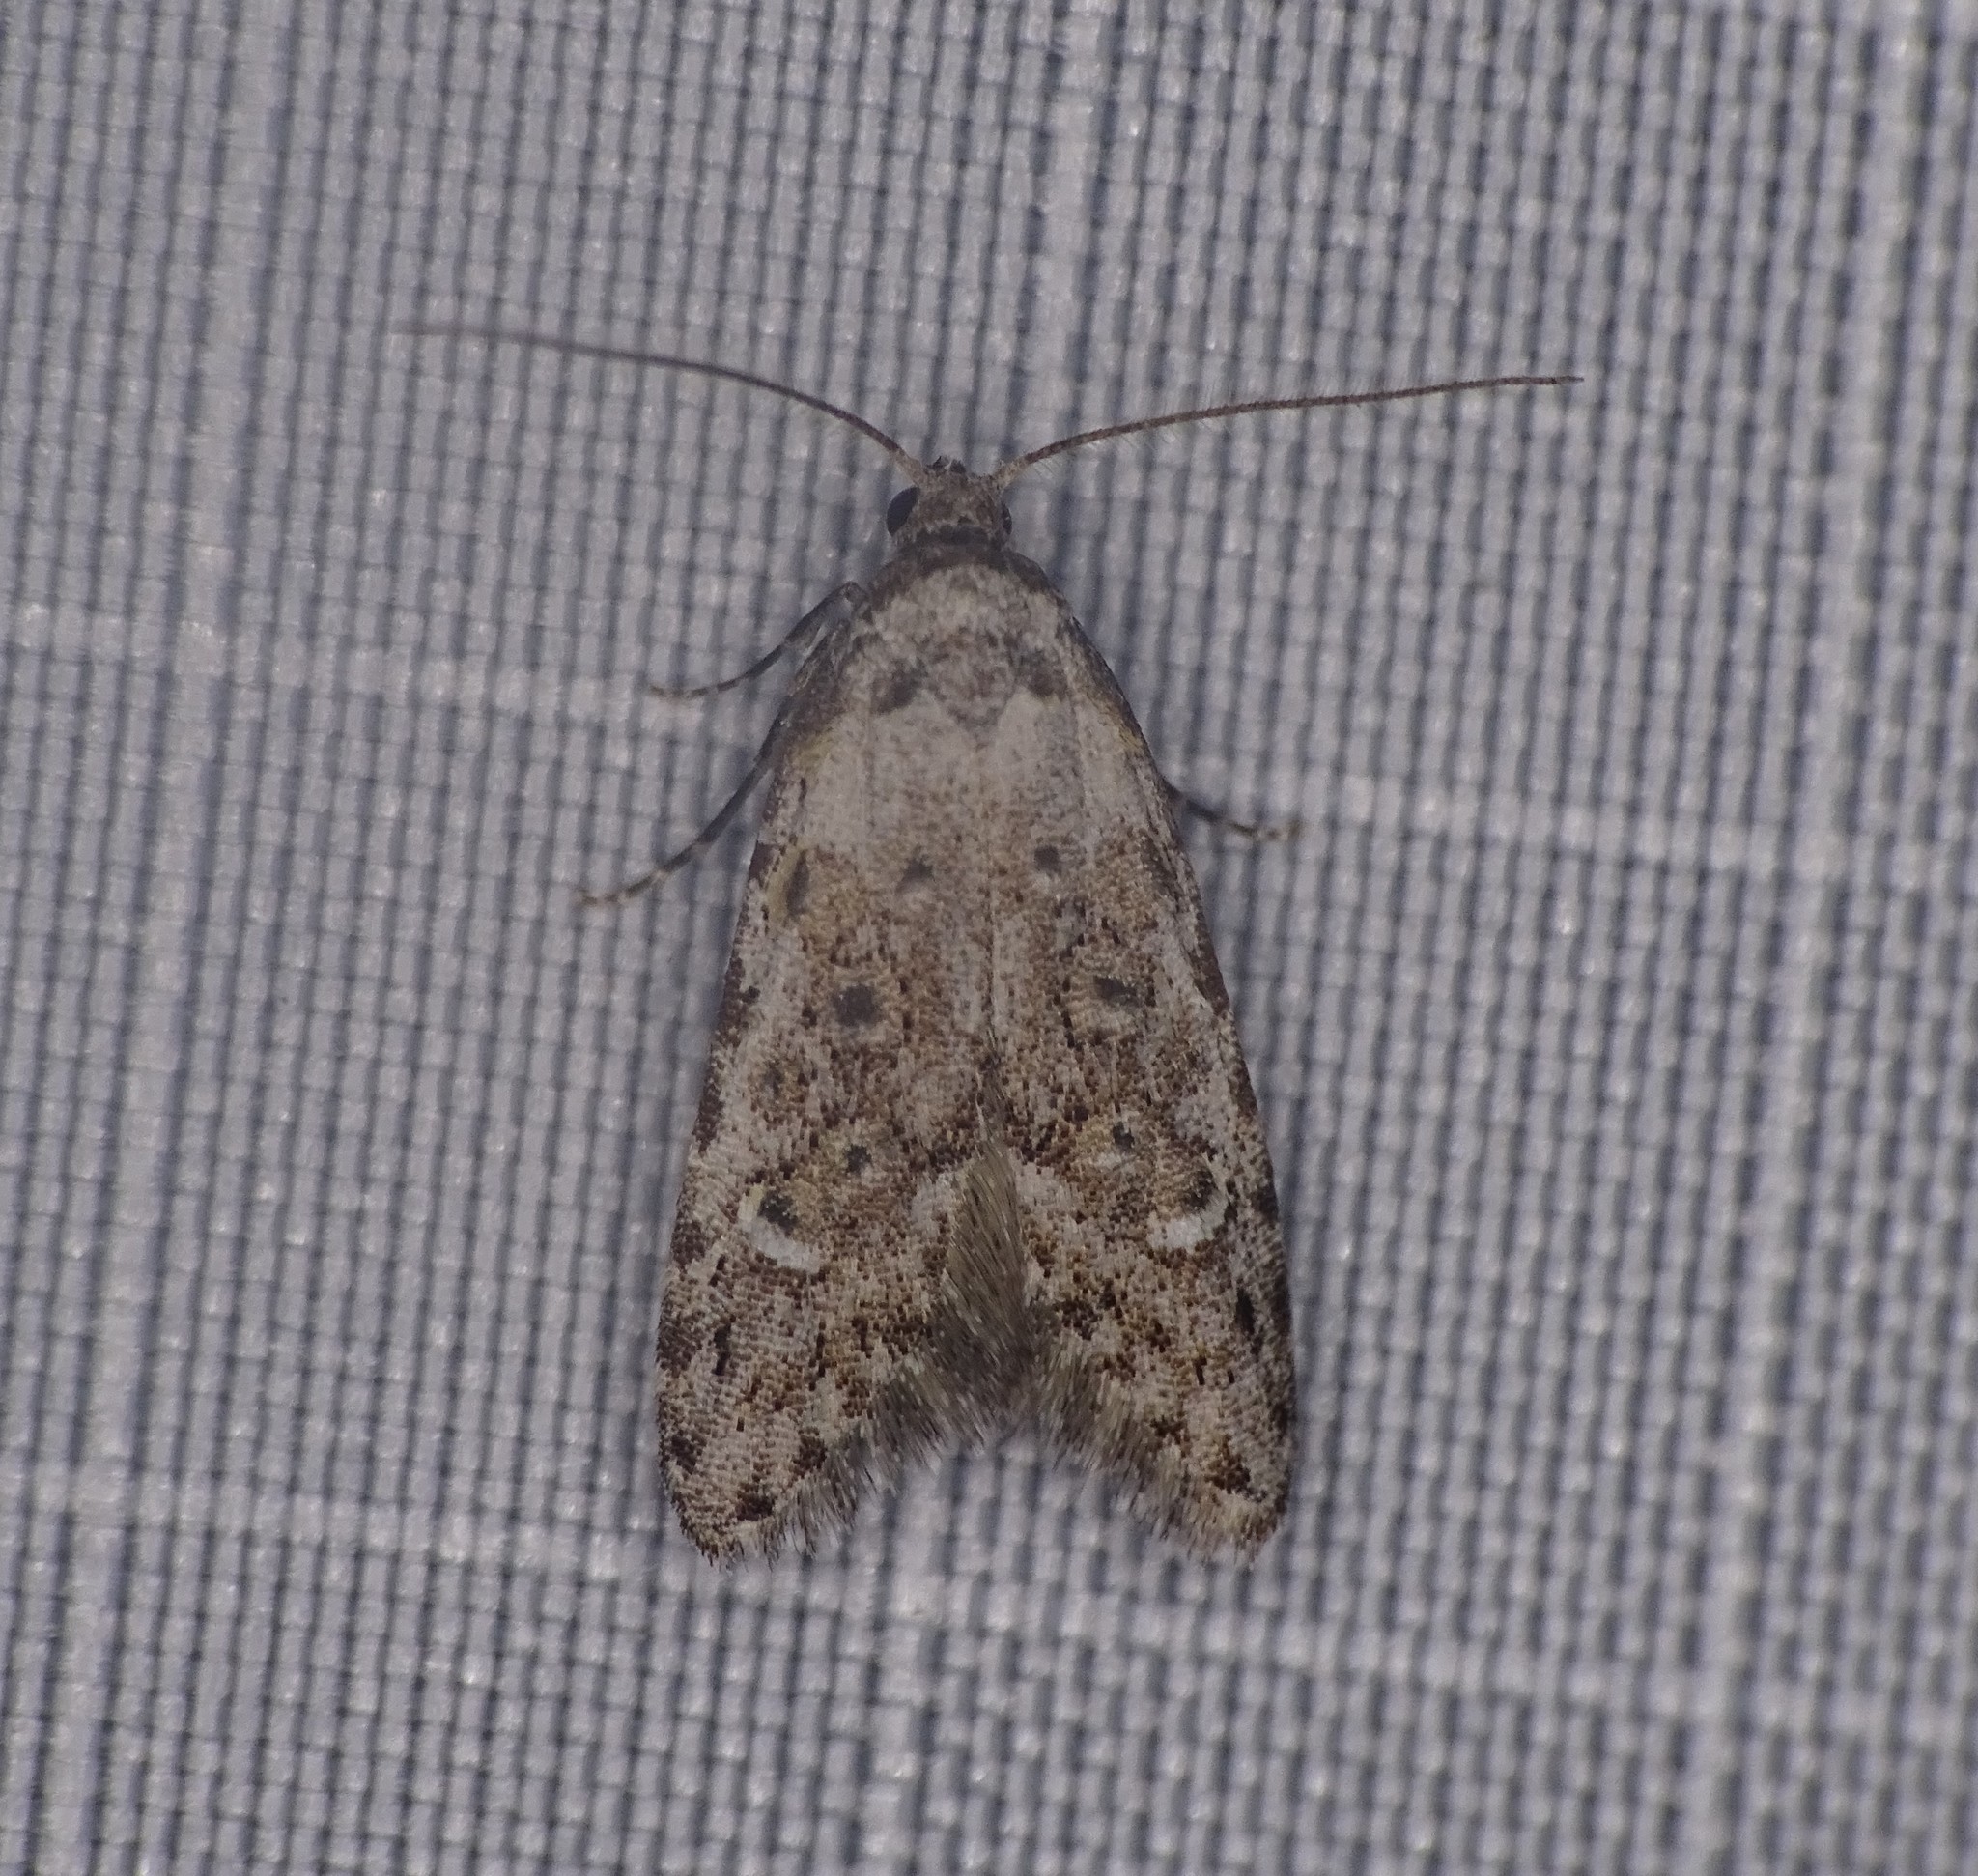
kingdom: Animalia
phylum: Arthropoda
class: Insecta
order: Lepidoptera
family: Carposinidae
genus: Bondia
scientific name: Bondia crescentella
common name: Crescent-marked bondia
